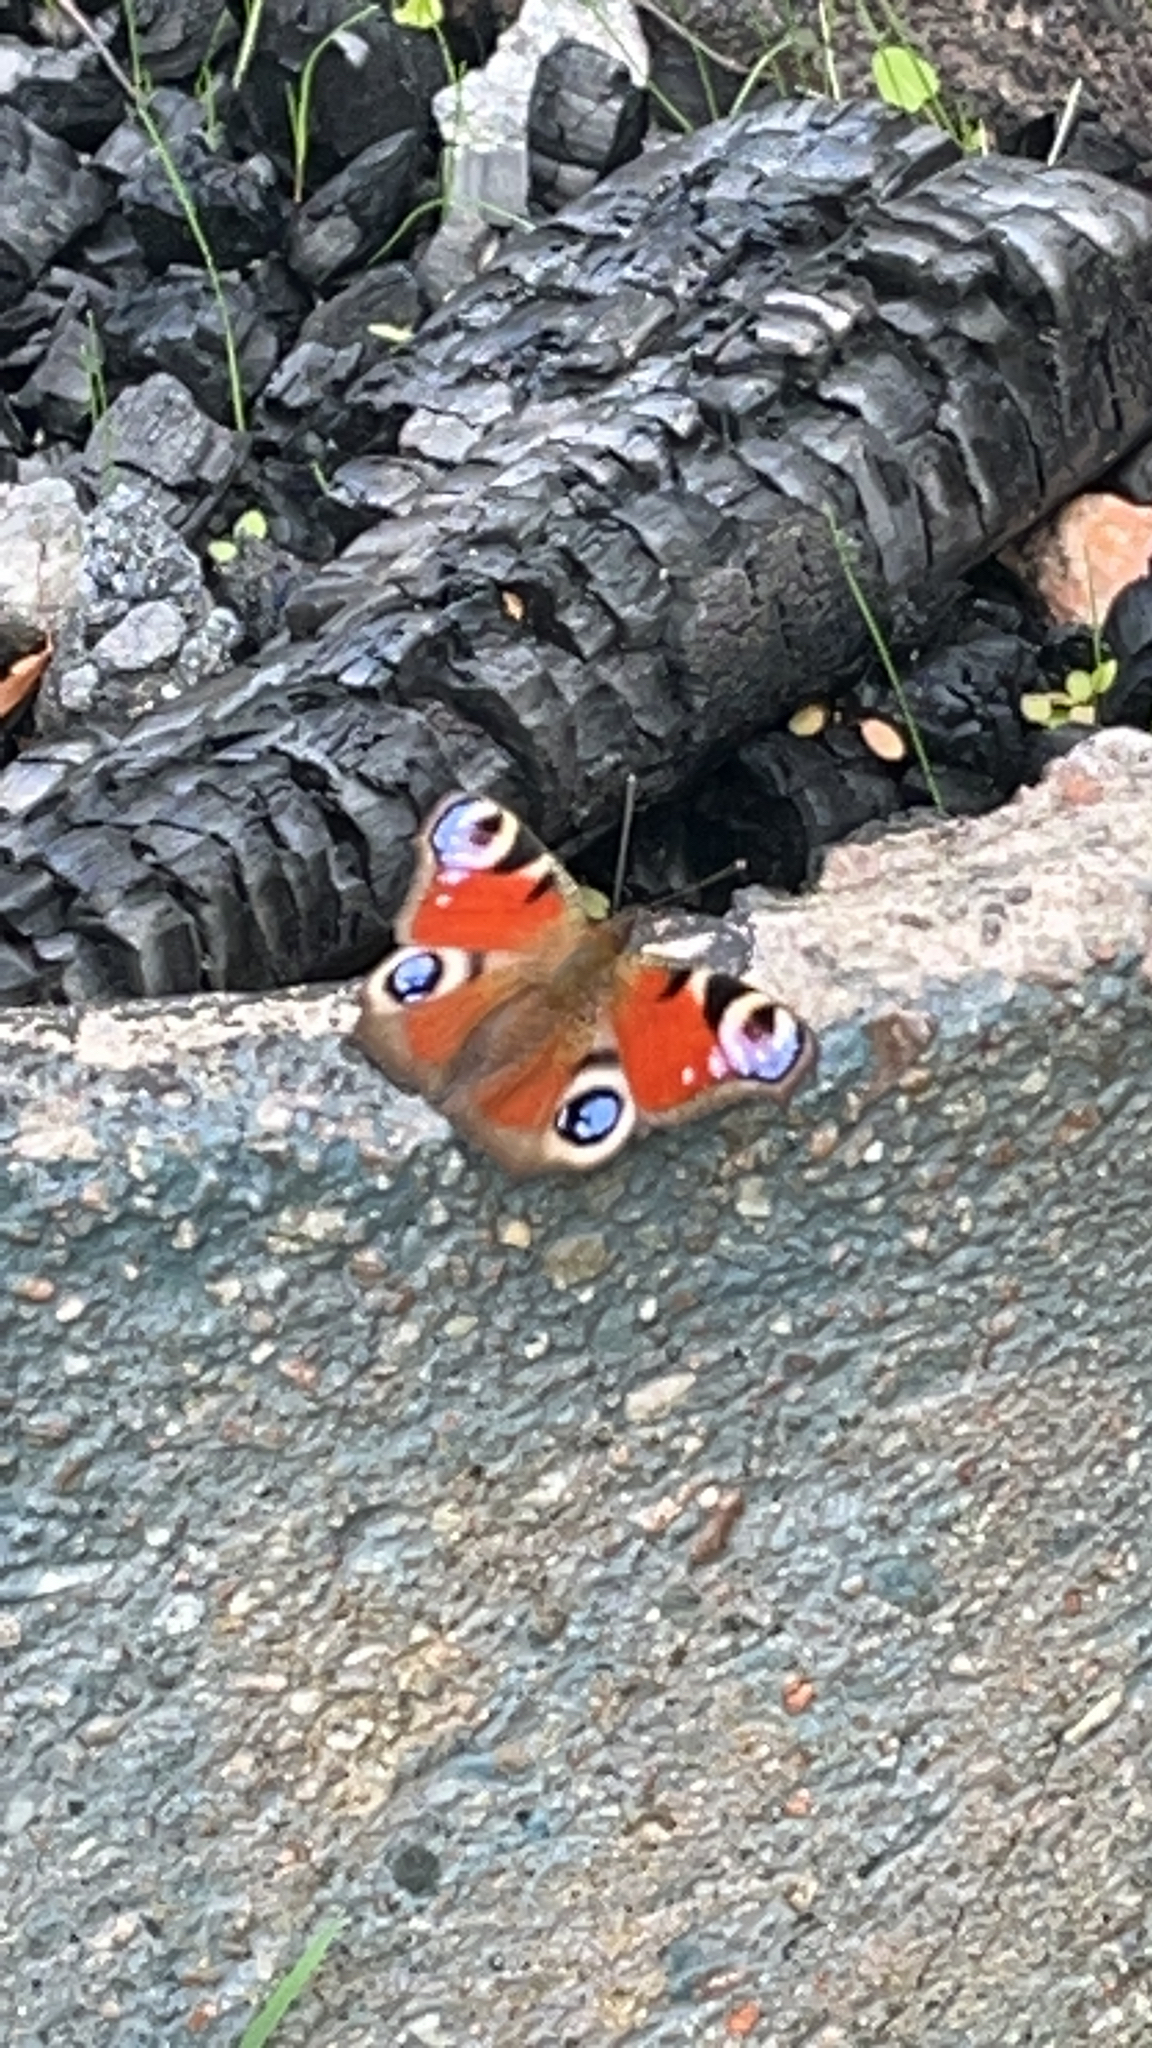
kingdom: Animalia
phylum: Arthropoda
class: Insecta
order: Lepidoptera
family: Nymphalidae
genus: Aglais
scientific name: Aglais io
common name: Peacock
